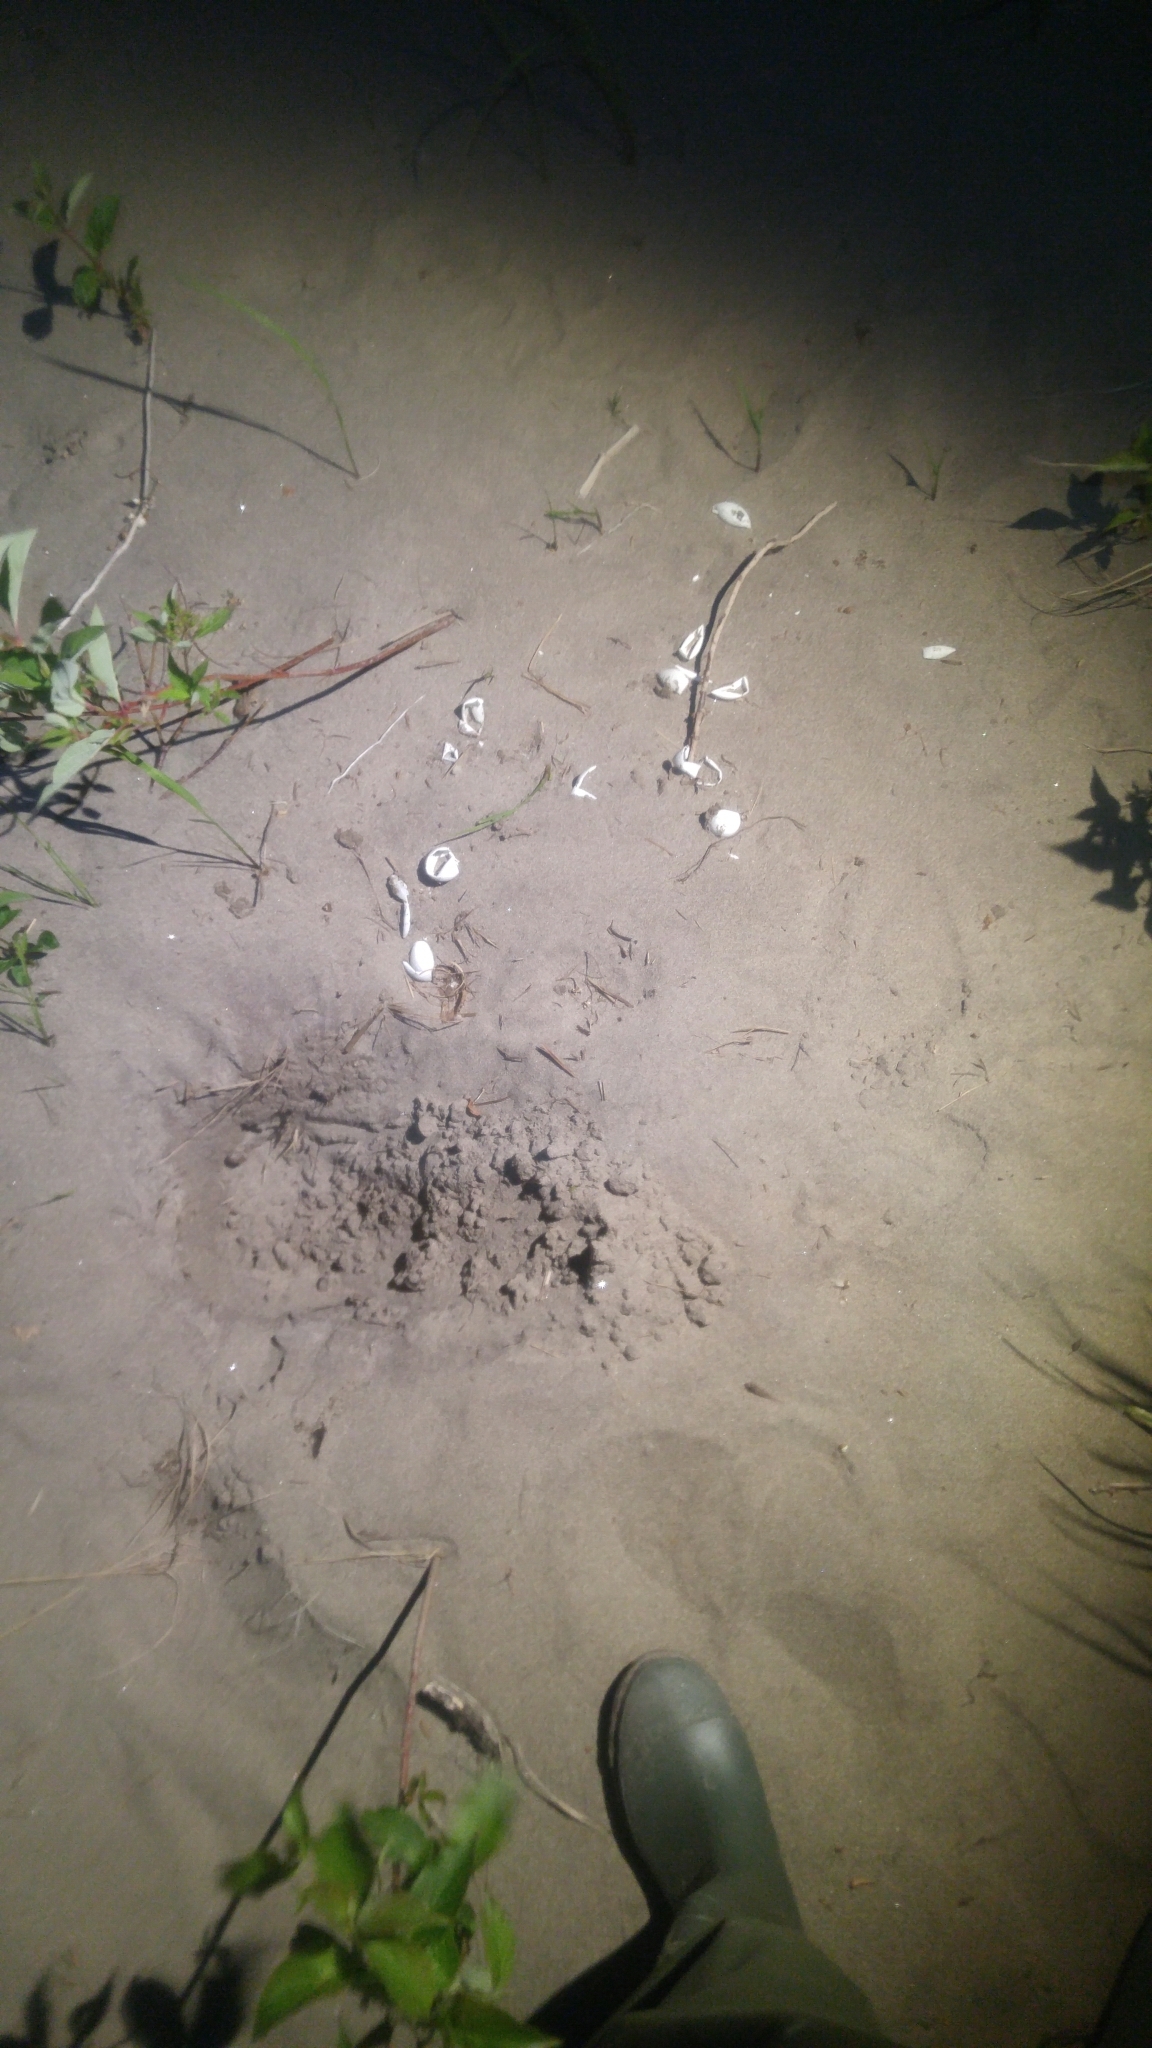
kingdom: Animalia
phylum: Chordata
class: Testudines
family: Chelydridae
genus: Chelydra
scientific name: Chelydra serpentina
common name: Common snapping turtle
